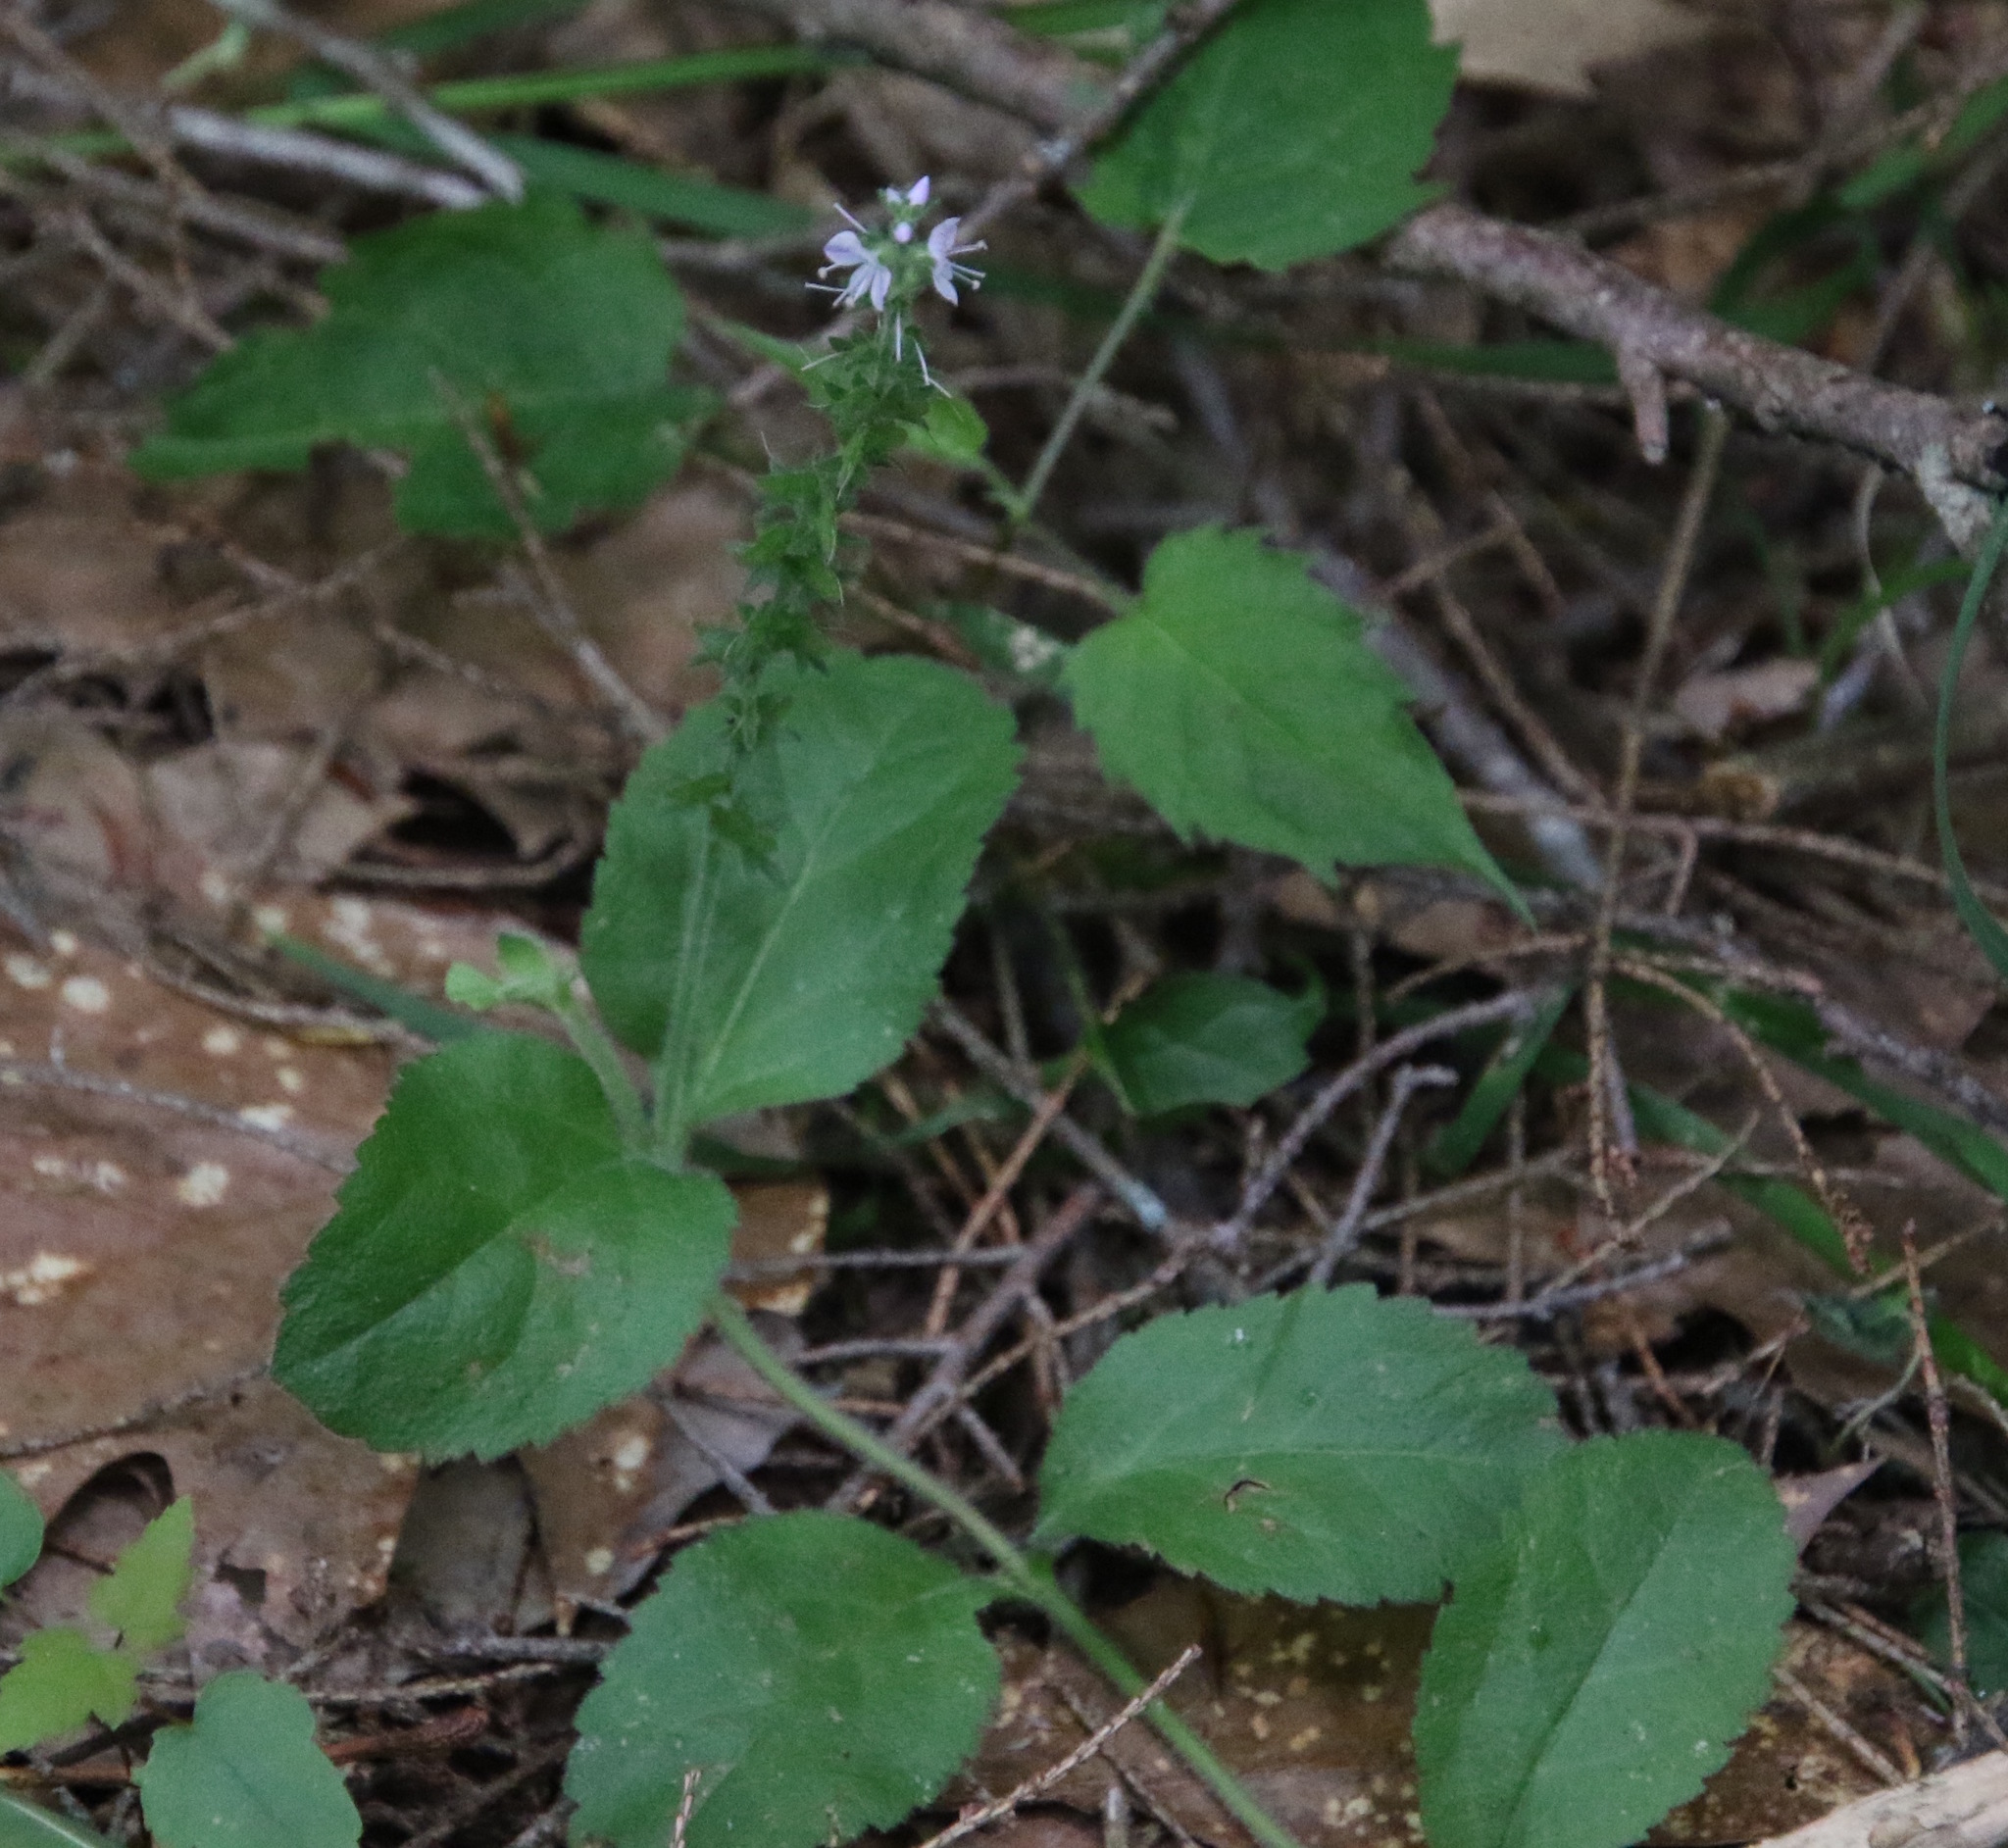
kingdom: Plantae
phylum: Tracheophyta
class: Magnoliopsida
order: Lamiales
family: Plantaginaceae
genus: Veronica
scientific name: Veronica officinalis
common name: Common speedwell
